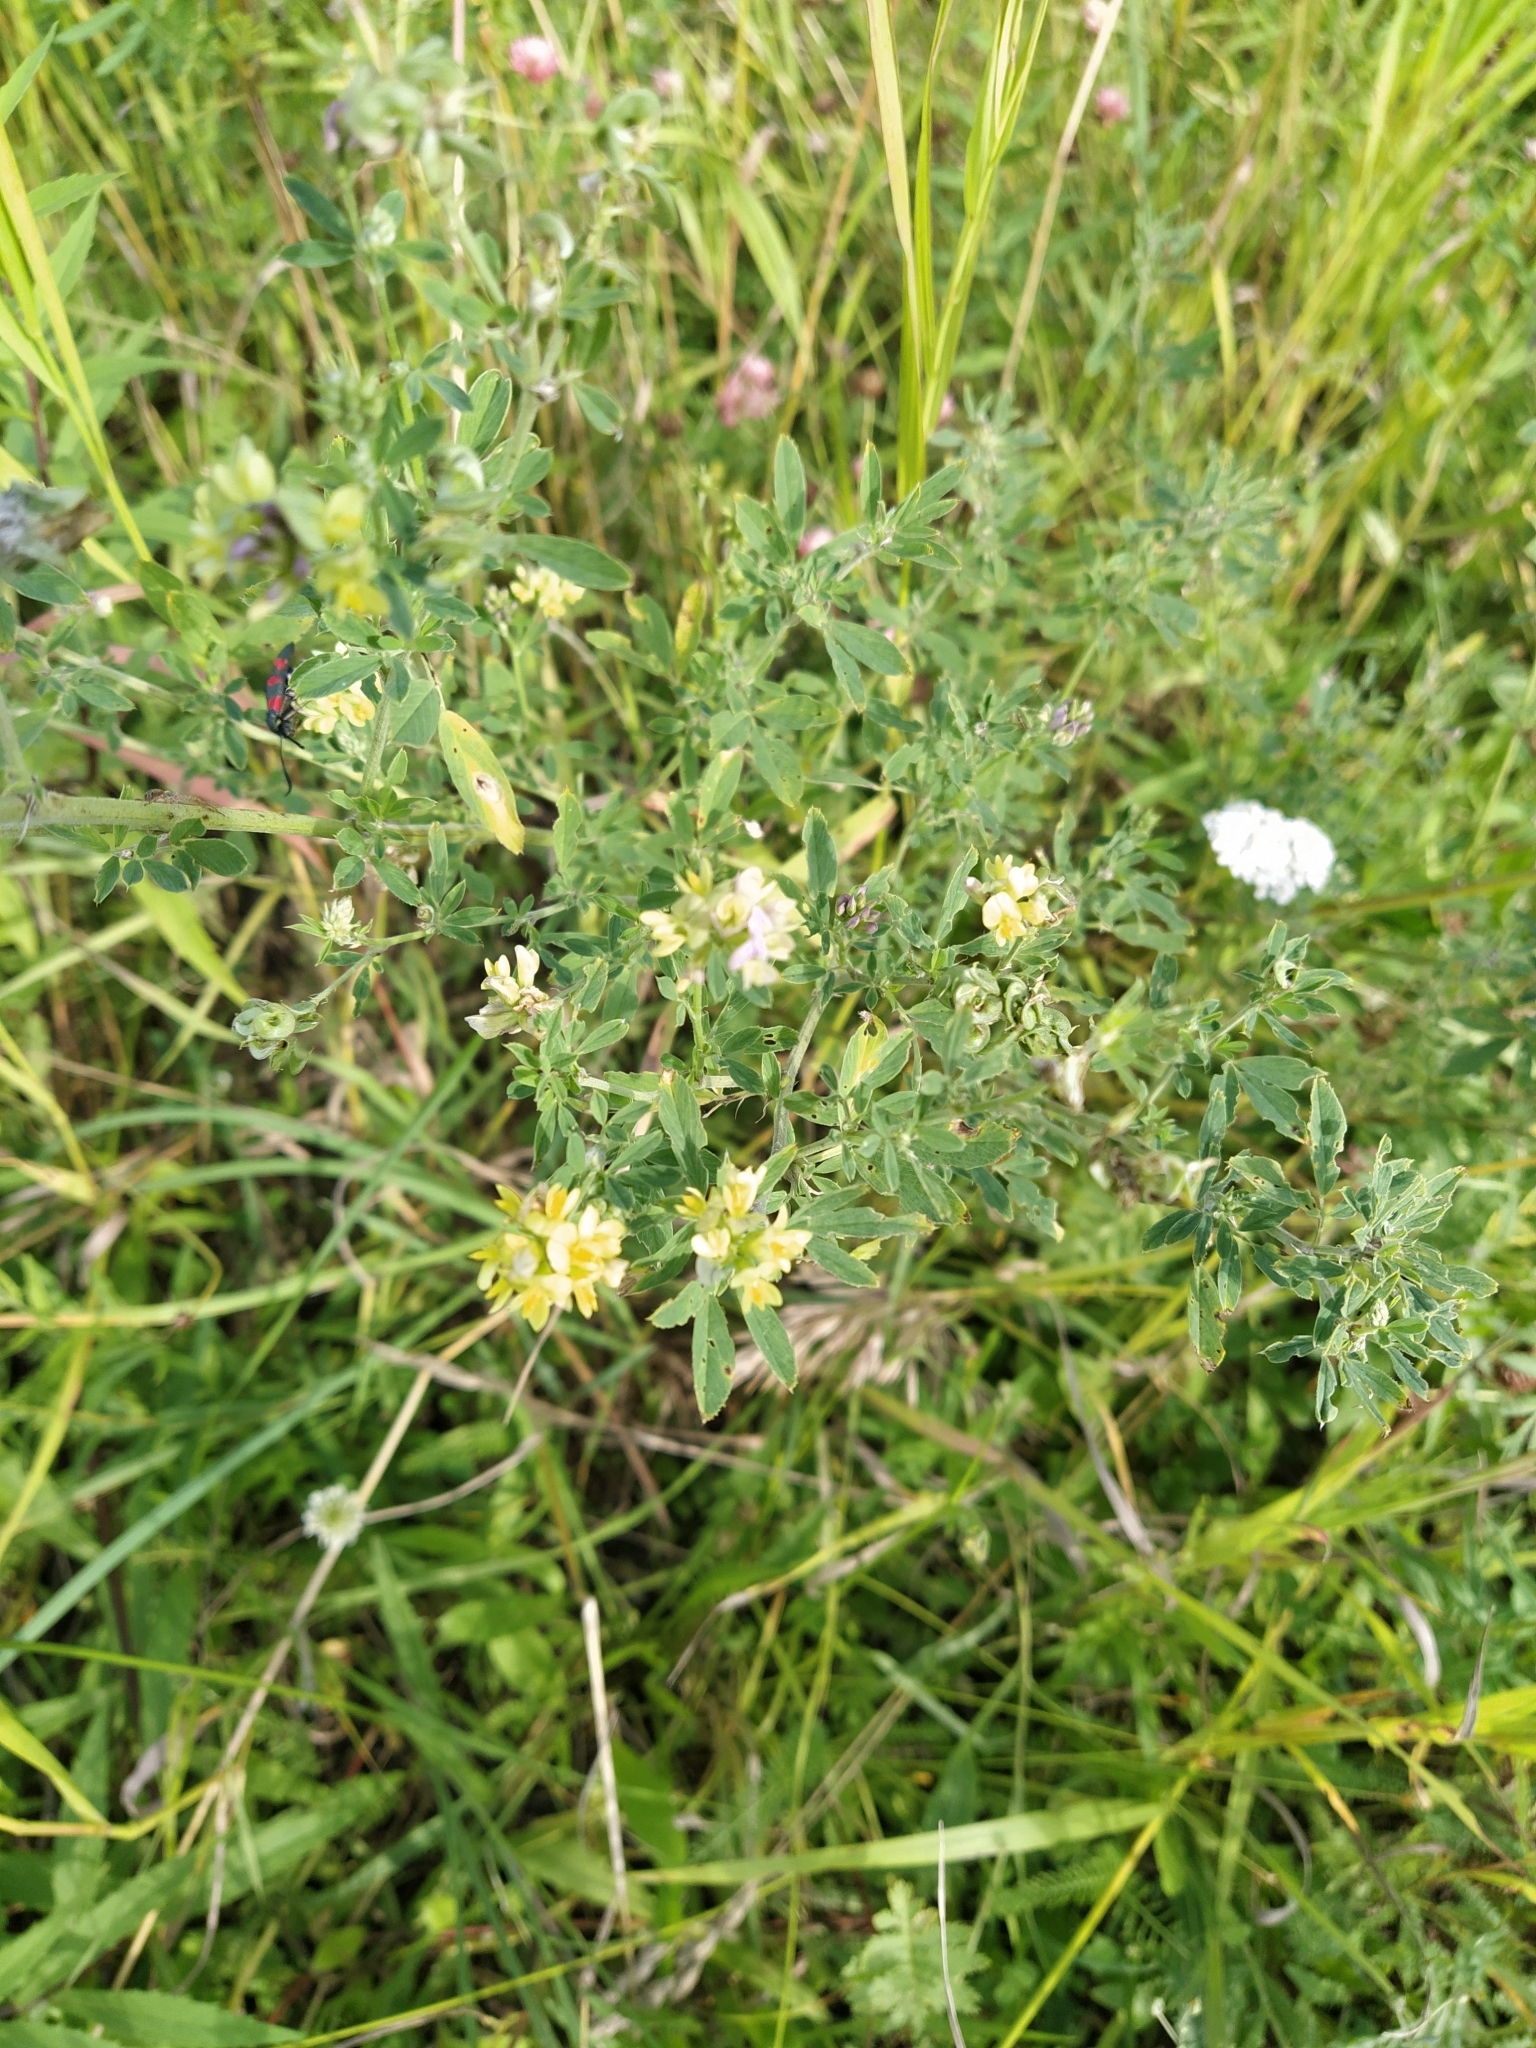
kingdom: Plantae
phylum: Tracheophyta
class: Magnoliopsida
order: Fabales
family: Fabaceae
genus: Medicago
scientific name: Medicago falcata
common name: Sickle medick
